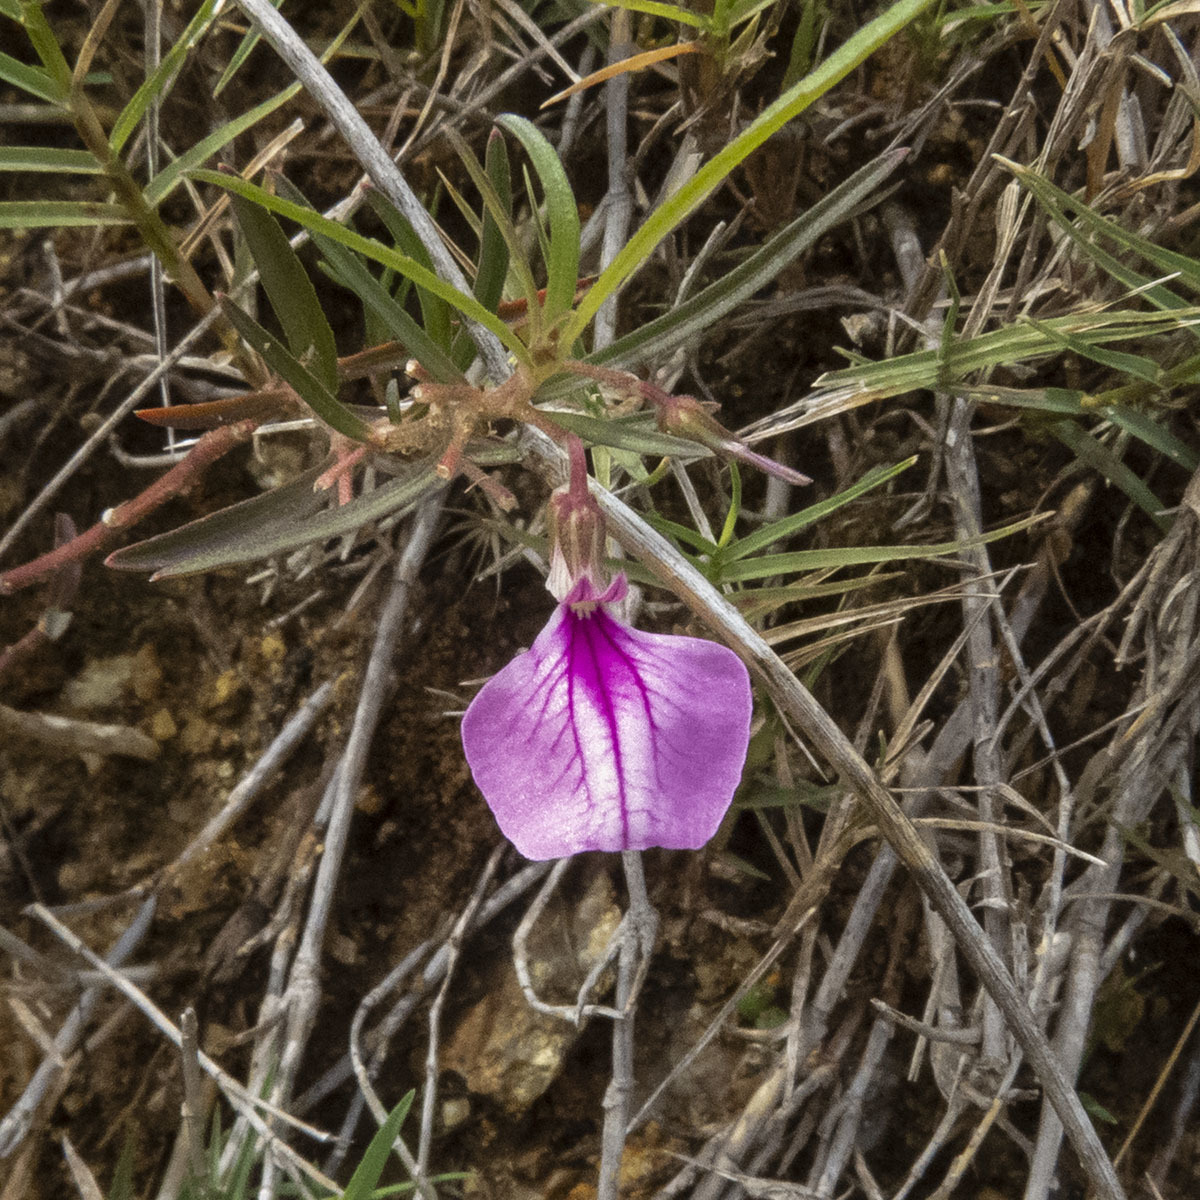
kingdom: Plantae
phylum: Tracheophyta
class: Magnoliopsida
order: Malpighiales
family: Violaceae
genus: Pigea
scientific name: Pigea enneasperma
